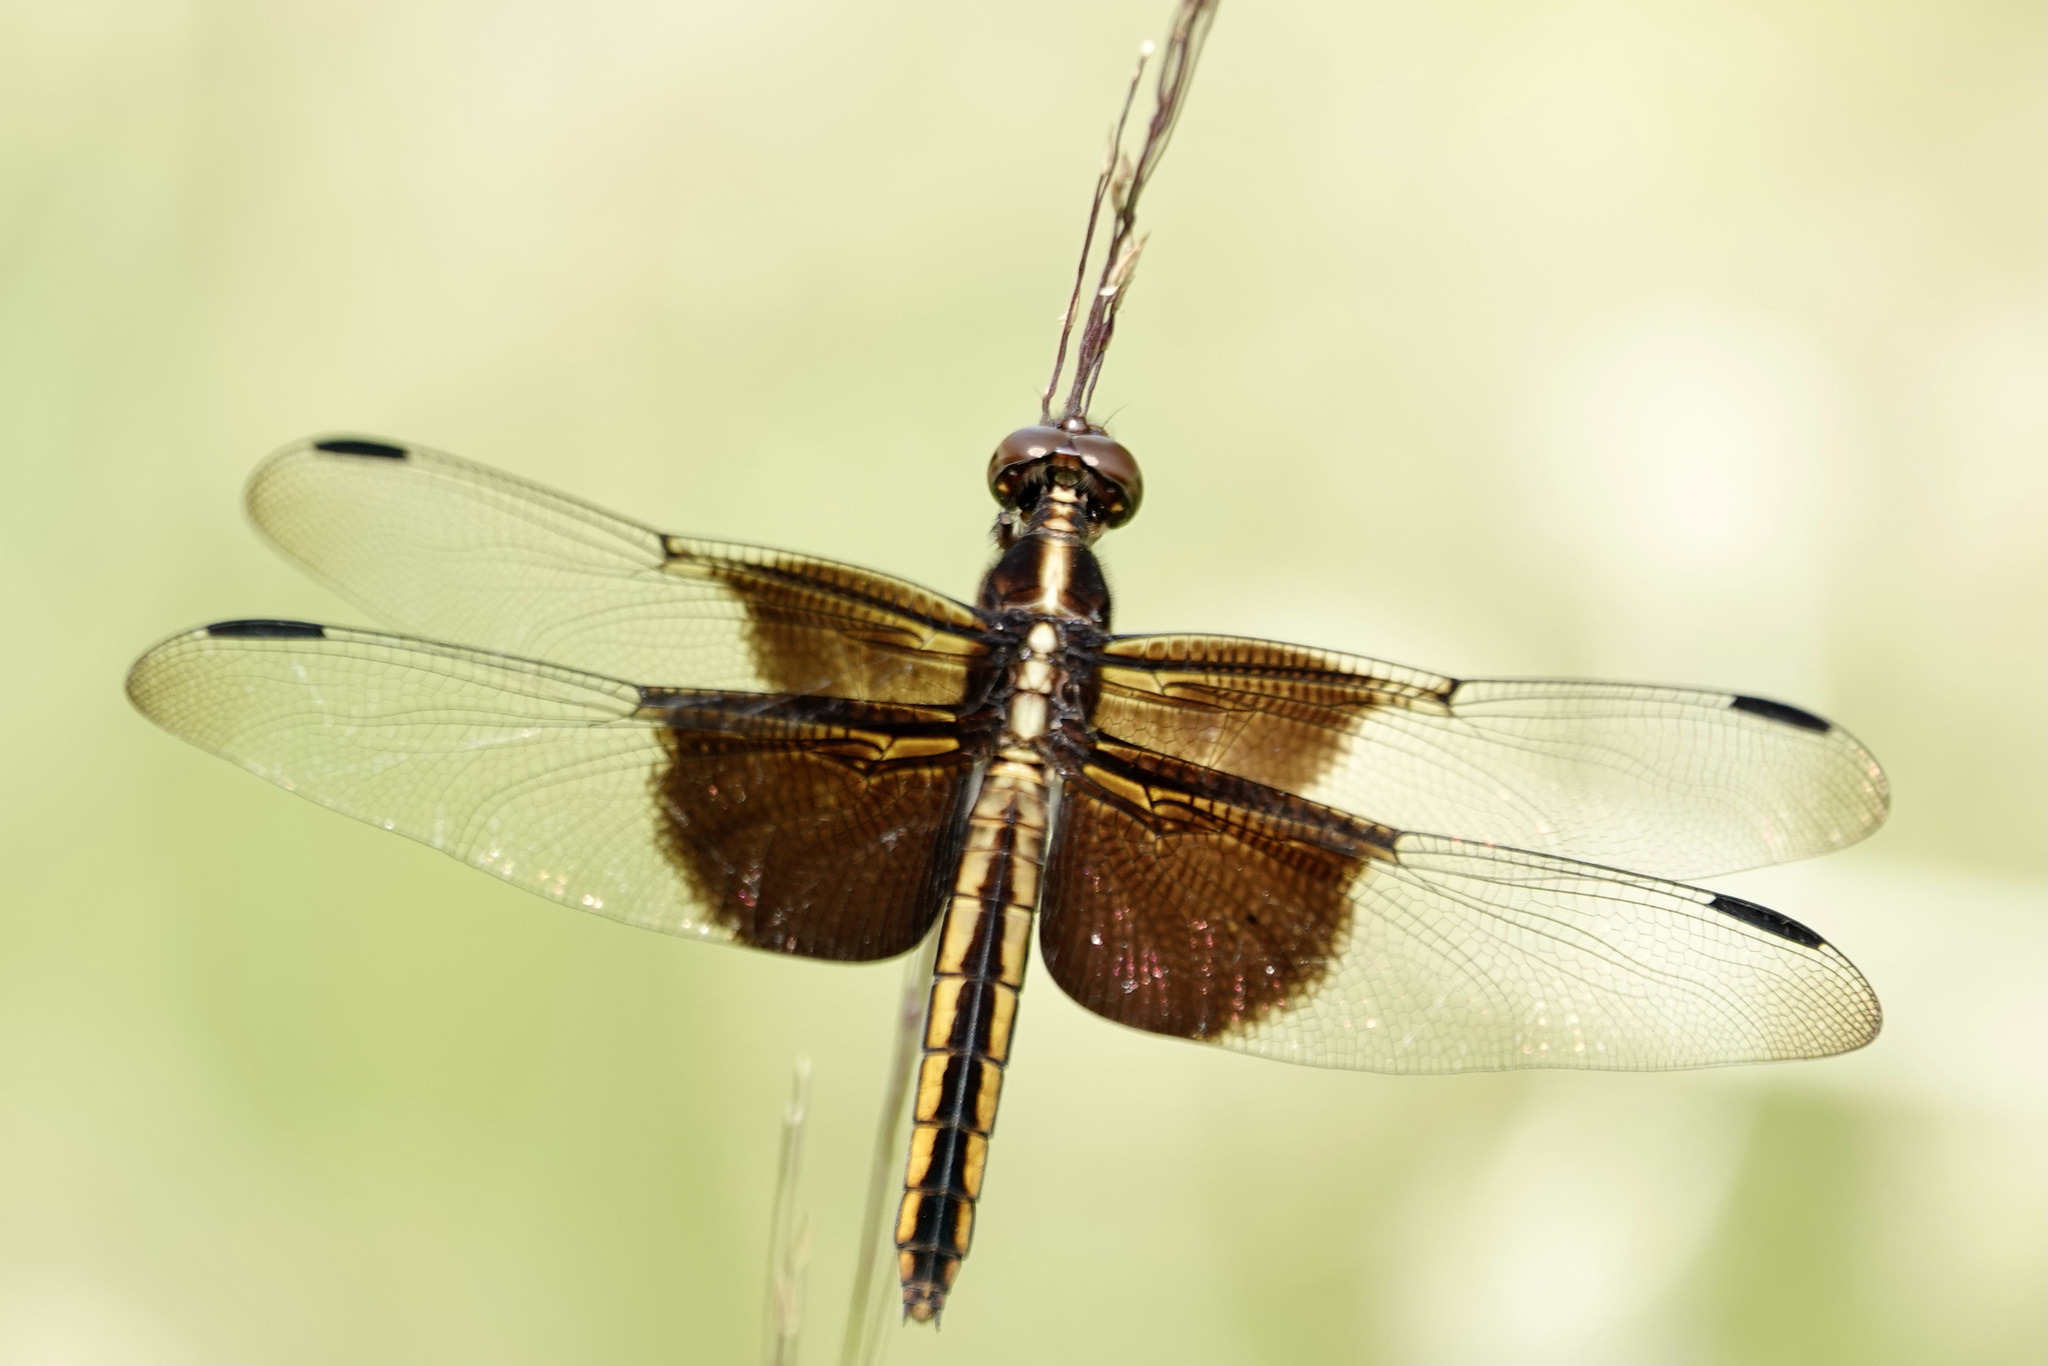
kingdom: Animalia
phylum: Arthropoda
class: Insecta
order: Odonata
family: Libellulidae
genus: Libellula
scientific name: Libellula luctuosa
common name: Widow skimmer
